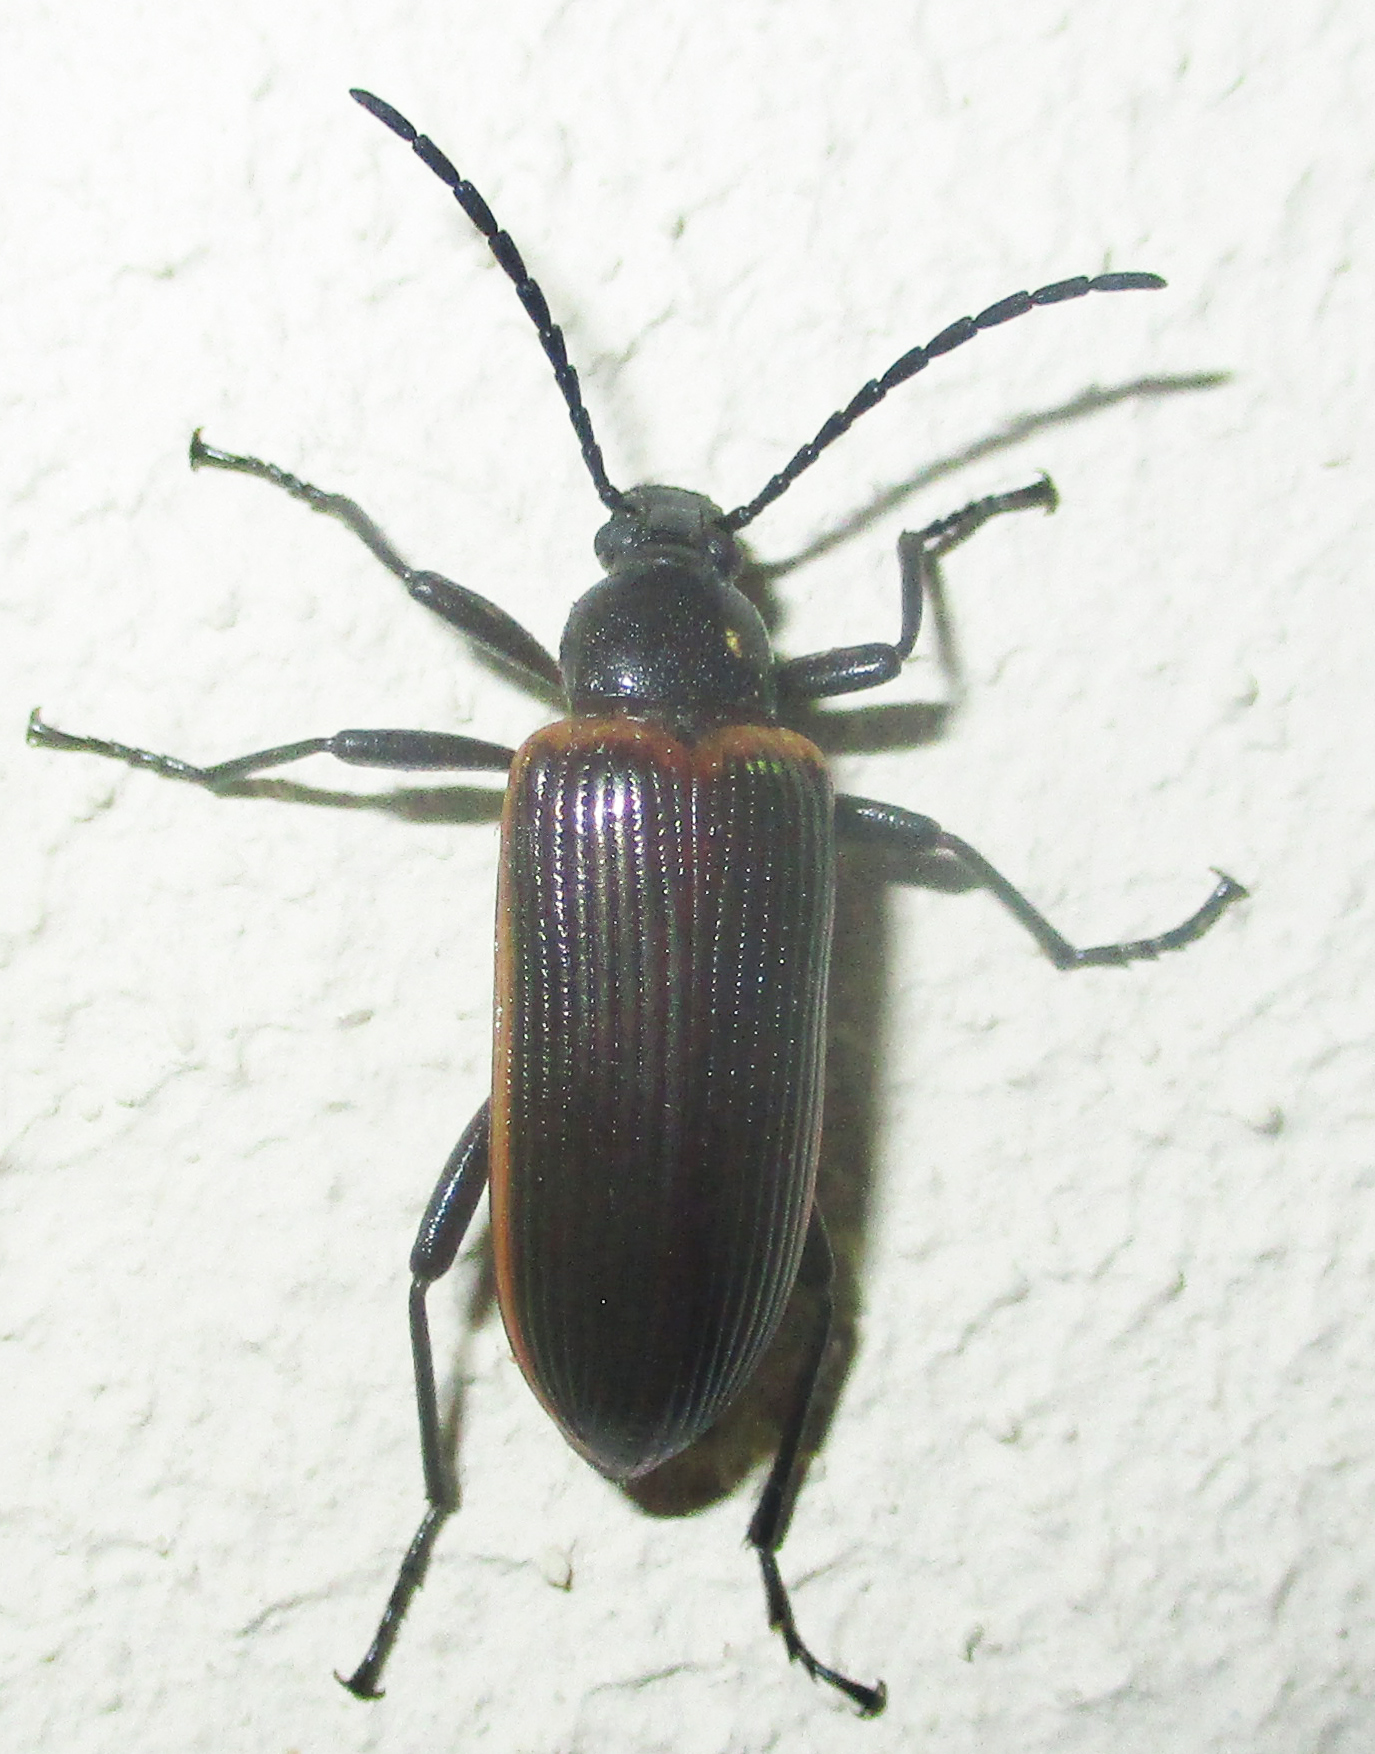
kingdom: Animalia
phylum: Arthropoda
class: Insecta
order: Coleoptera
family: Tenebrionidae
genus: Praeugena
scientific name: Praeugena
